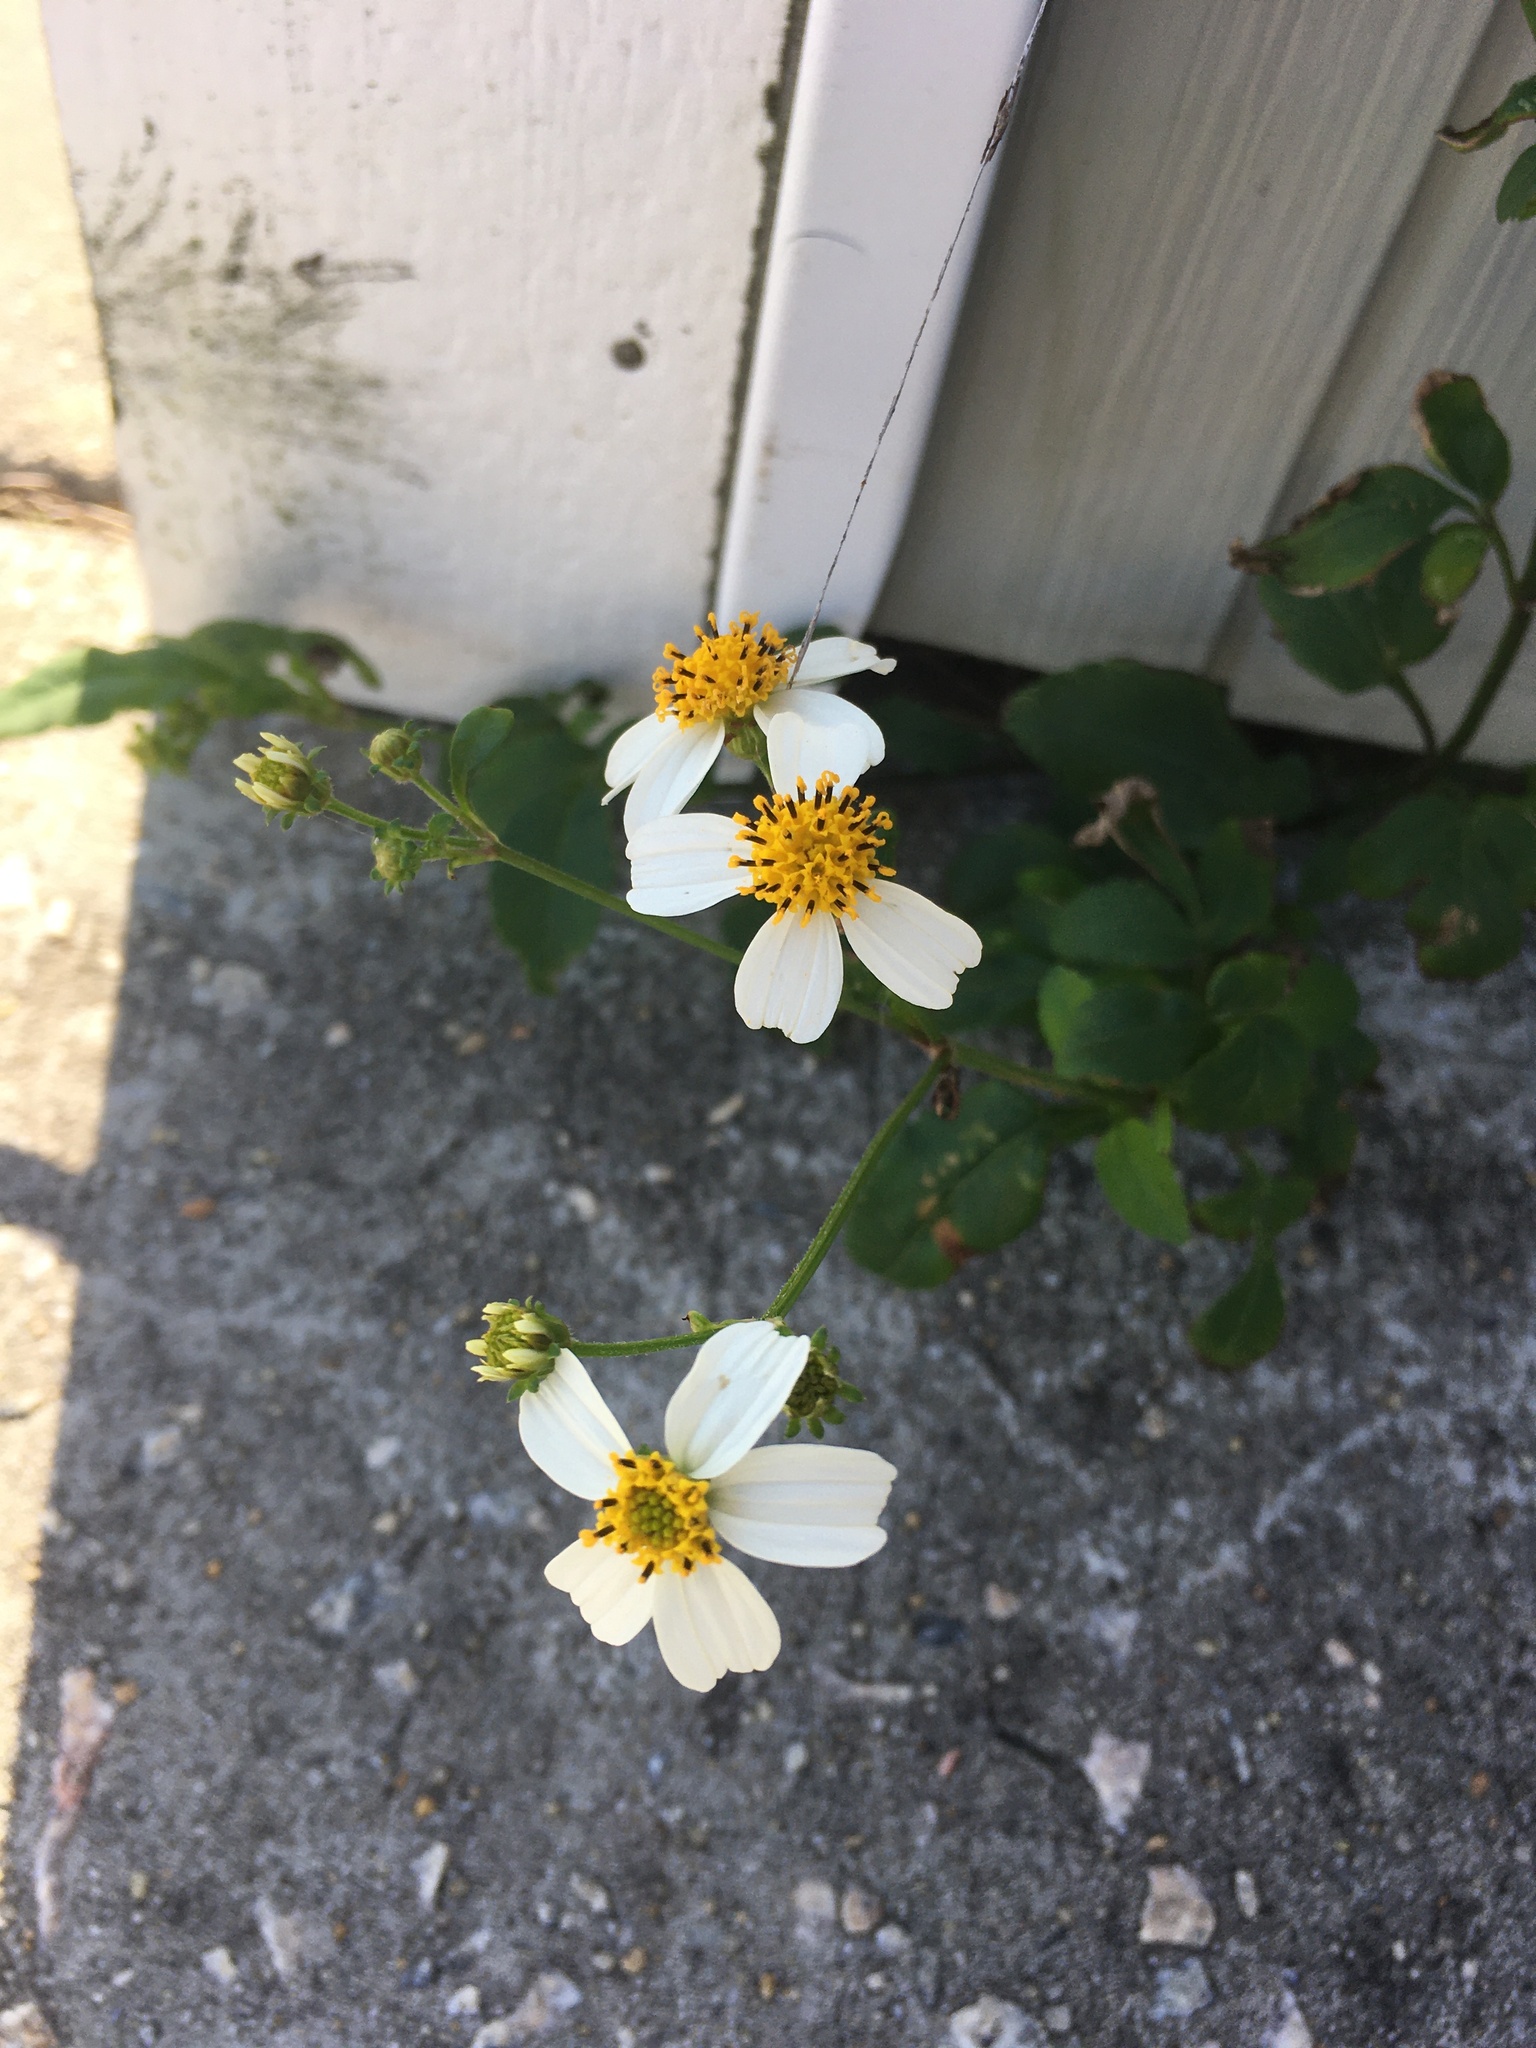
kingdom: Plantae
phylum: Tracheophyta
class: Magnoliopsida
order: Asterales
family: Asteraceae
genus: Bidens
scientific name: Bidens alba
